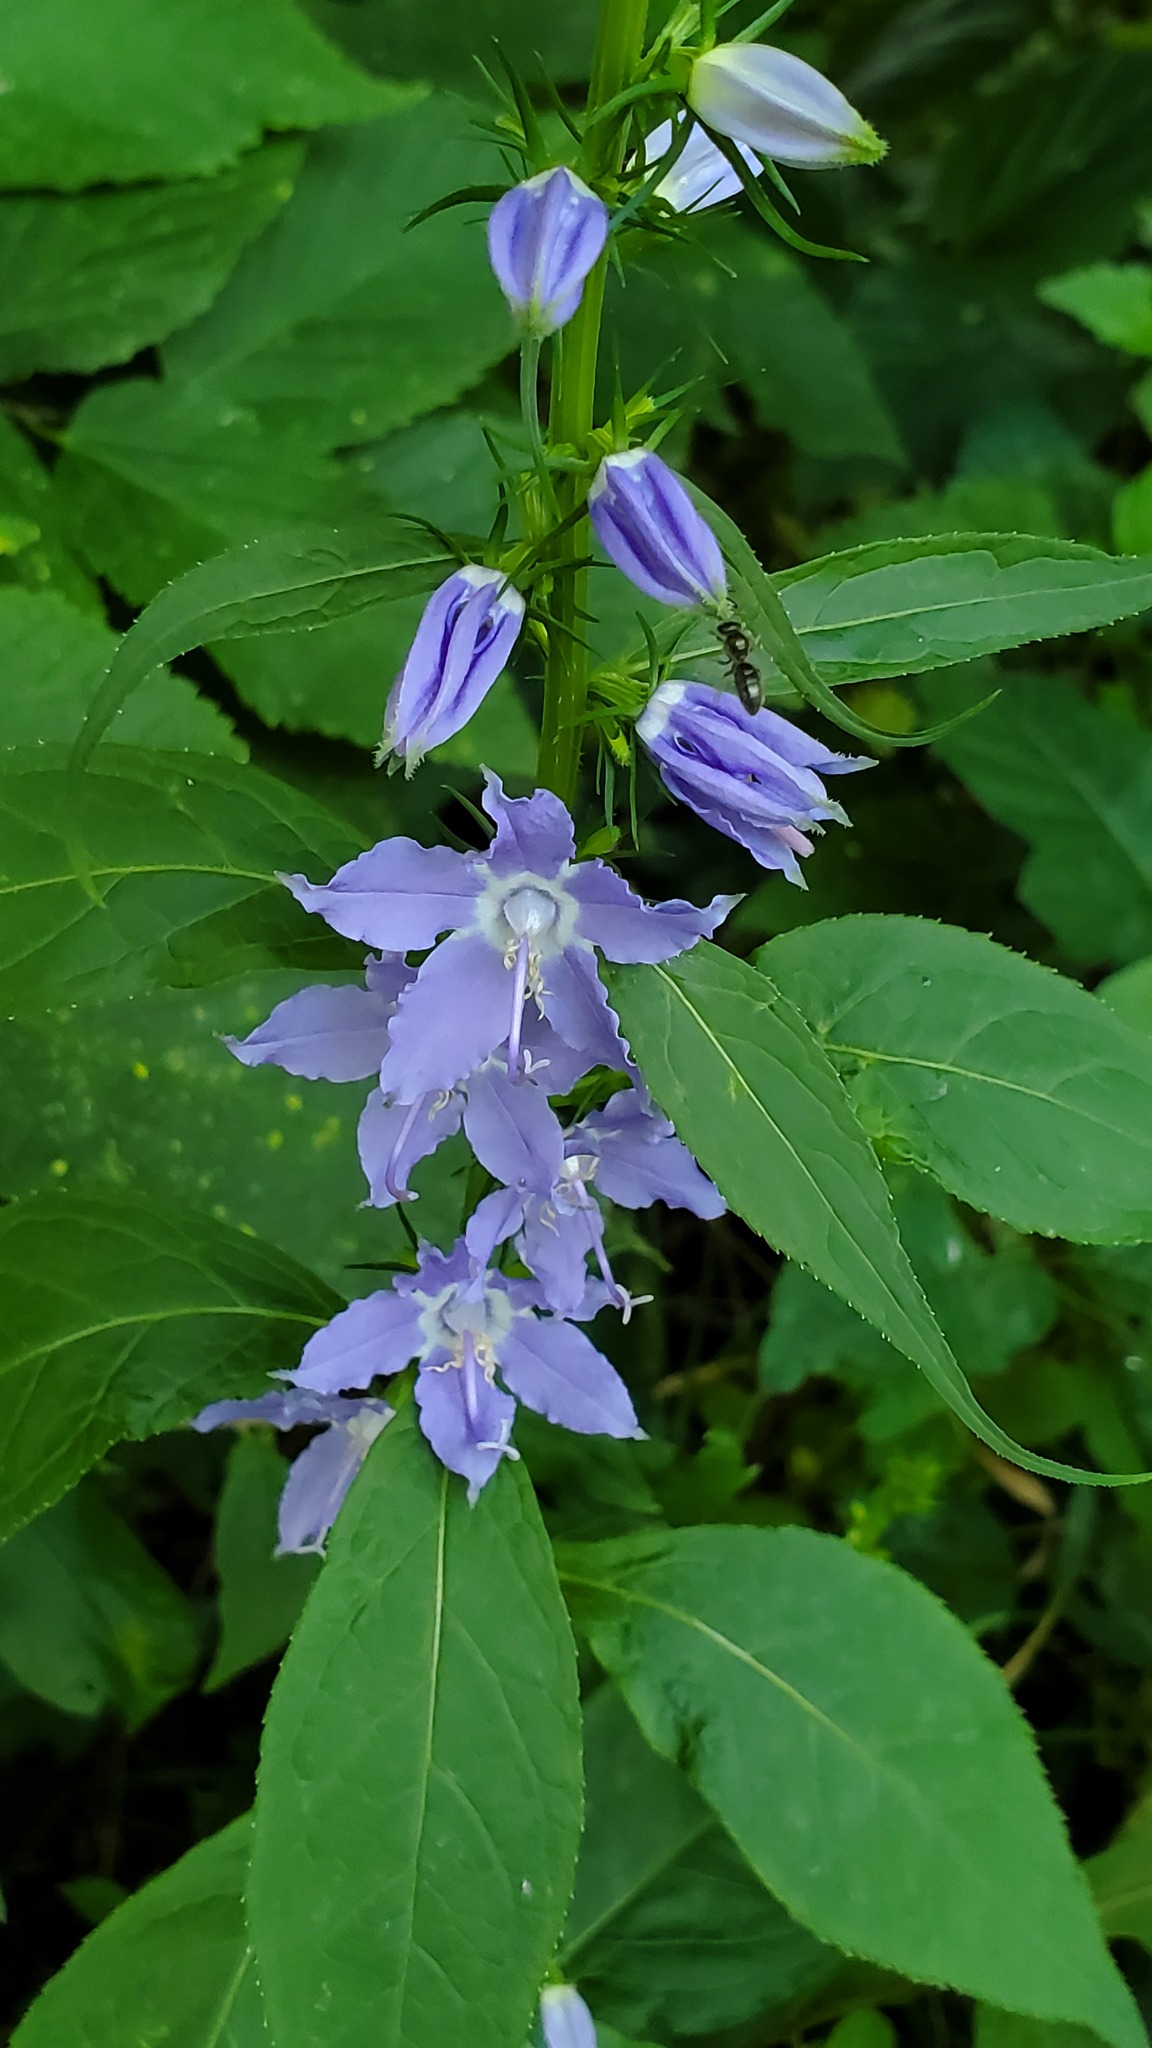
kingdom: Plantae
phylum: Tracheophyta
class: Magnoliopsida
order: Asterales
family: Campanulaceae
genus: Campanulastrum
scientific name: Campanulastrum americanum
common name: American bellflower
